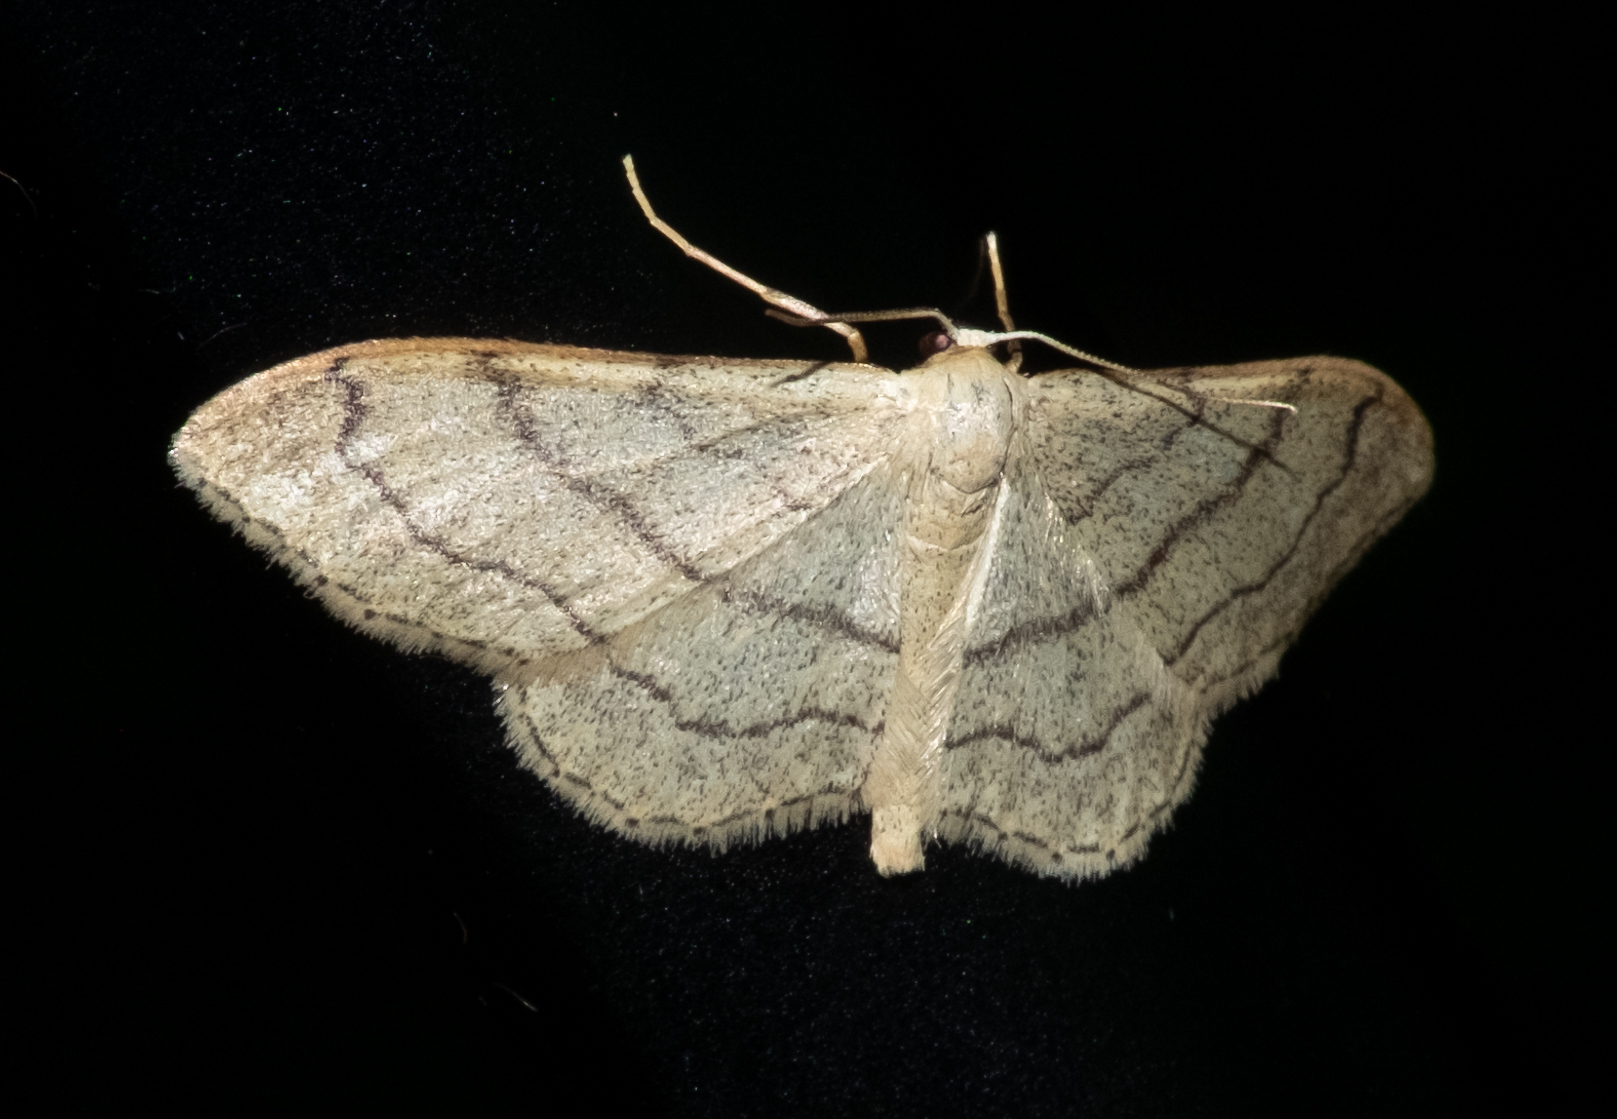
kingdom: Animalia
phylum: Arthropoda
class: Insecta
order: Lepidoptera
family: Geometridae
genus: Idaea
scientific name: Idaea aversata
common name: Riband wave
